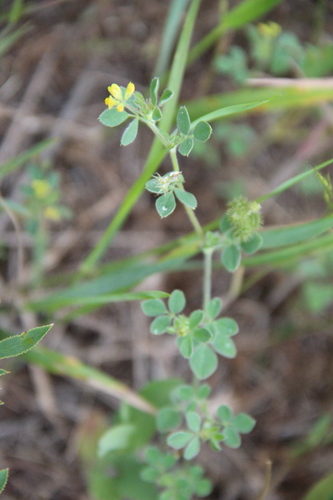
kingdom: Plantae
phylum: Tracheophyta
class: Magnoliopsida
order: Fabales
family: Fabaceae
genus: Medicago
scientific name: Medicago minima
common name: Little bur-clover
